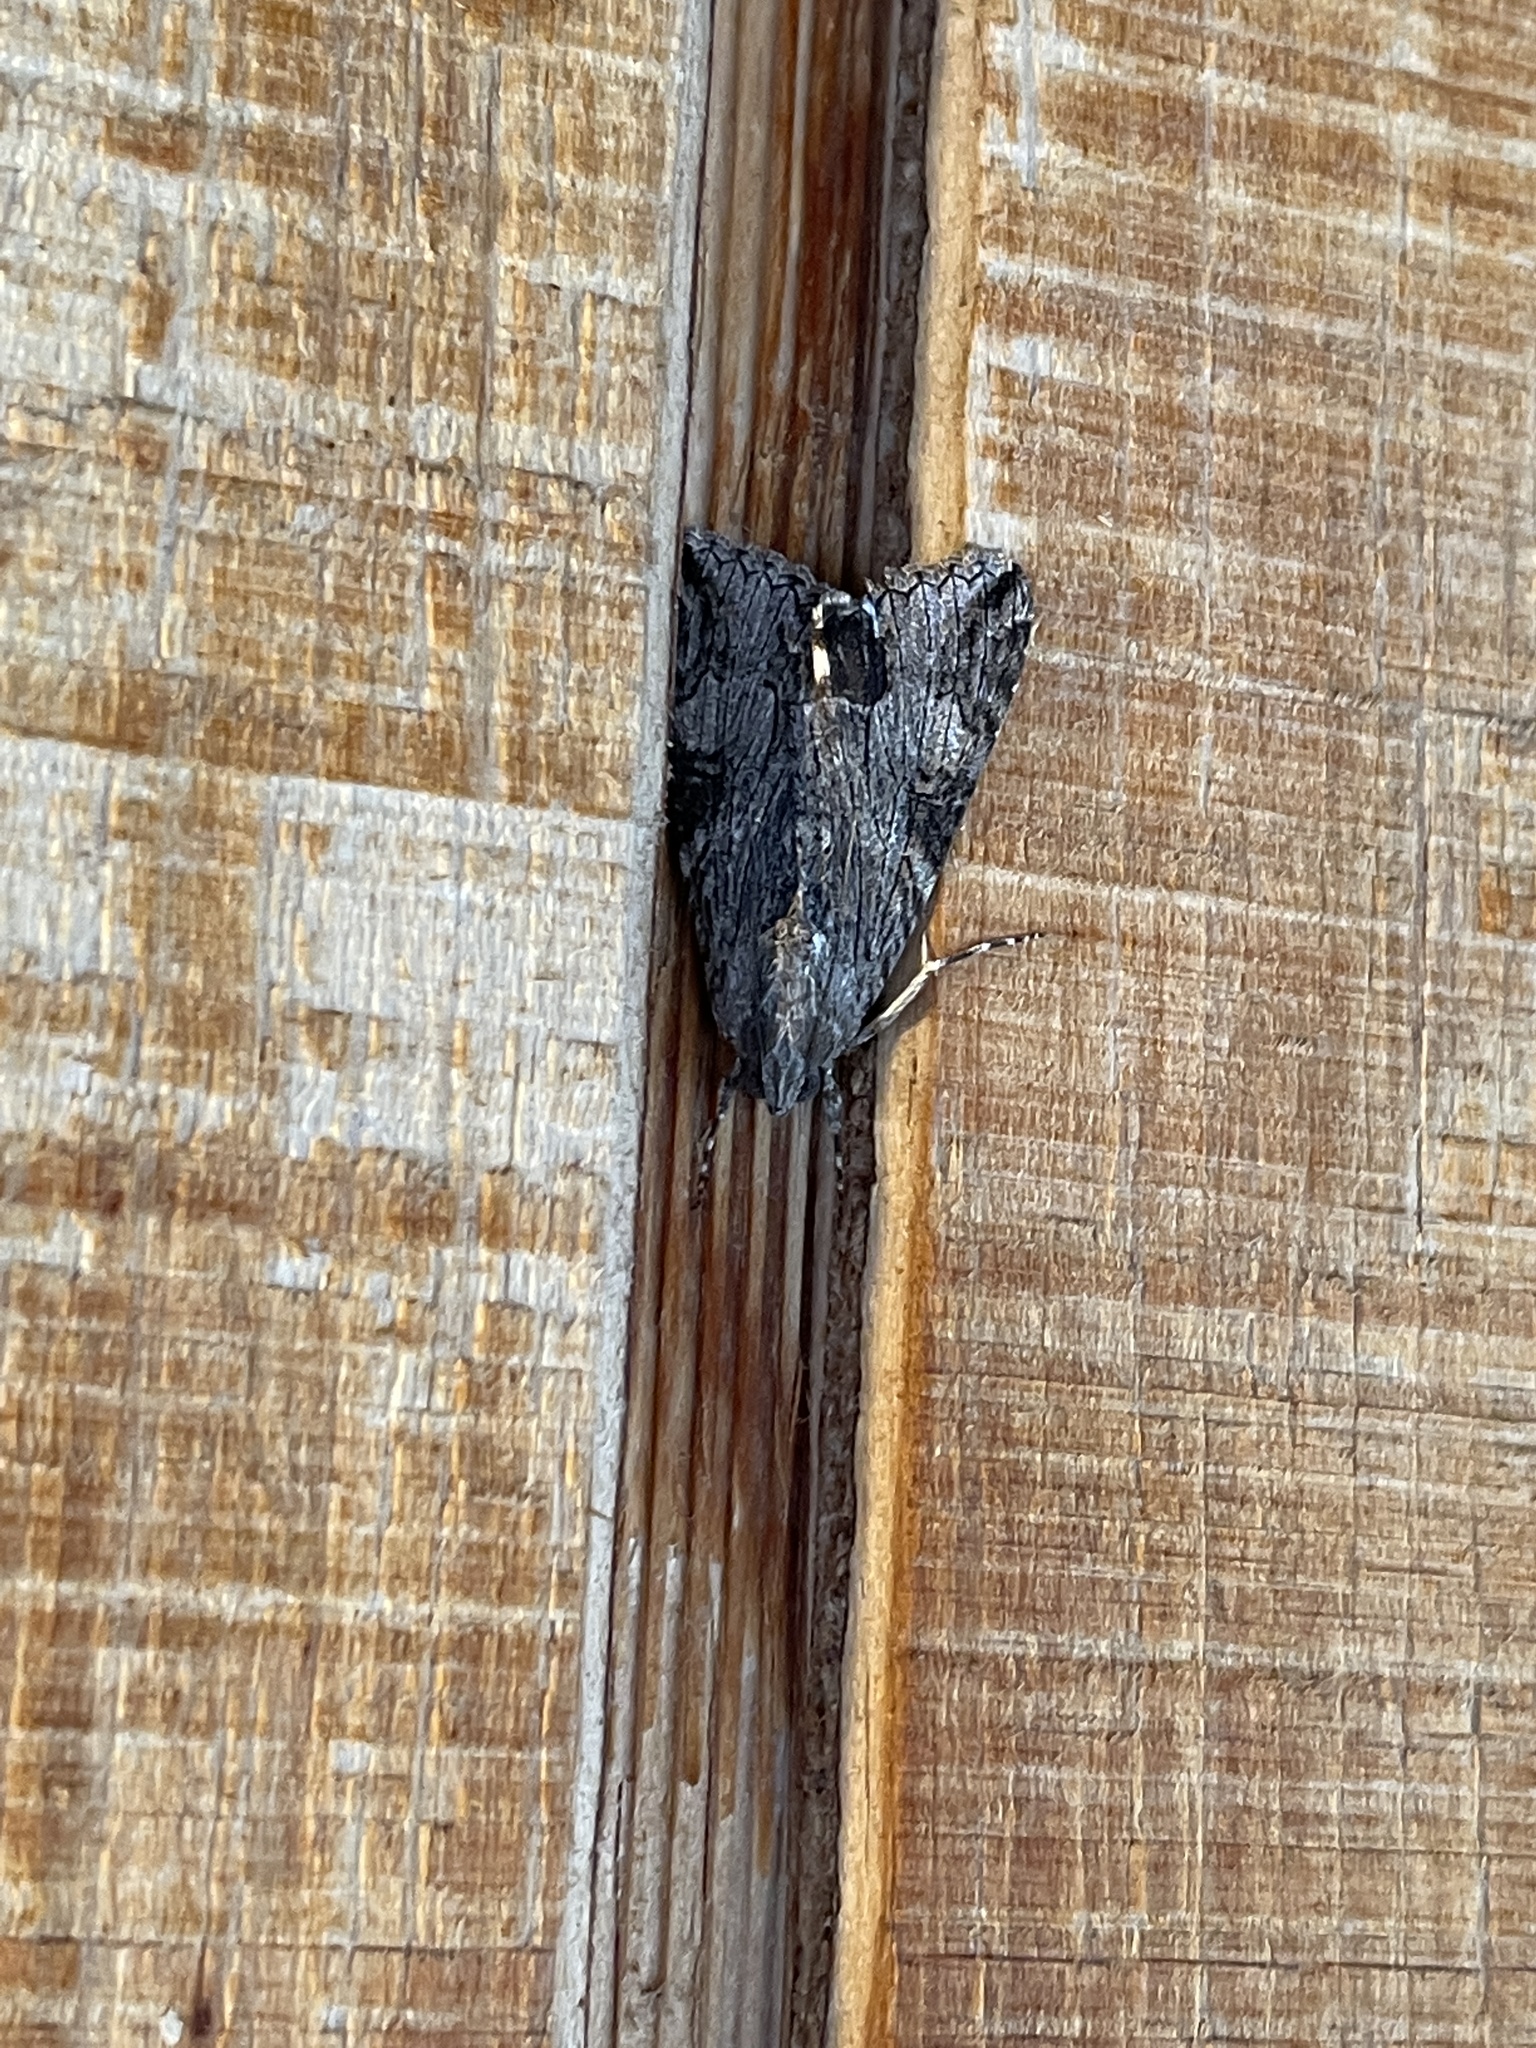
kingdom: Animalia
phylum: Arthropoda
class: Insecta
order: Lepidoptera
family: Erebidae
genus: Melipotis
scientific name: Melipotis jucunda
